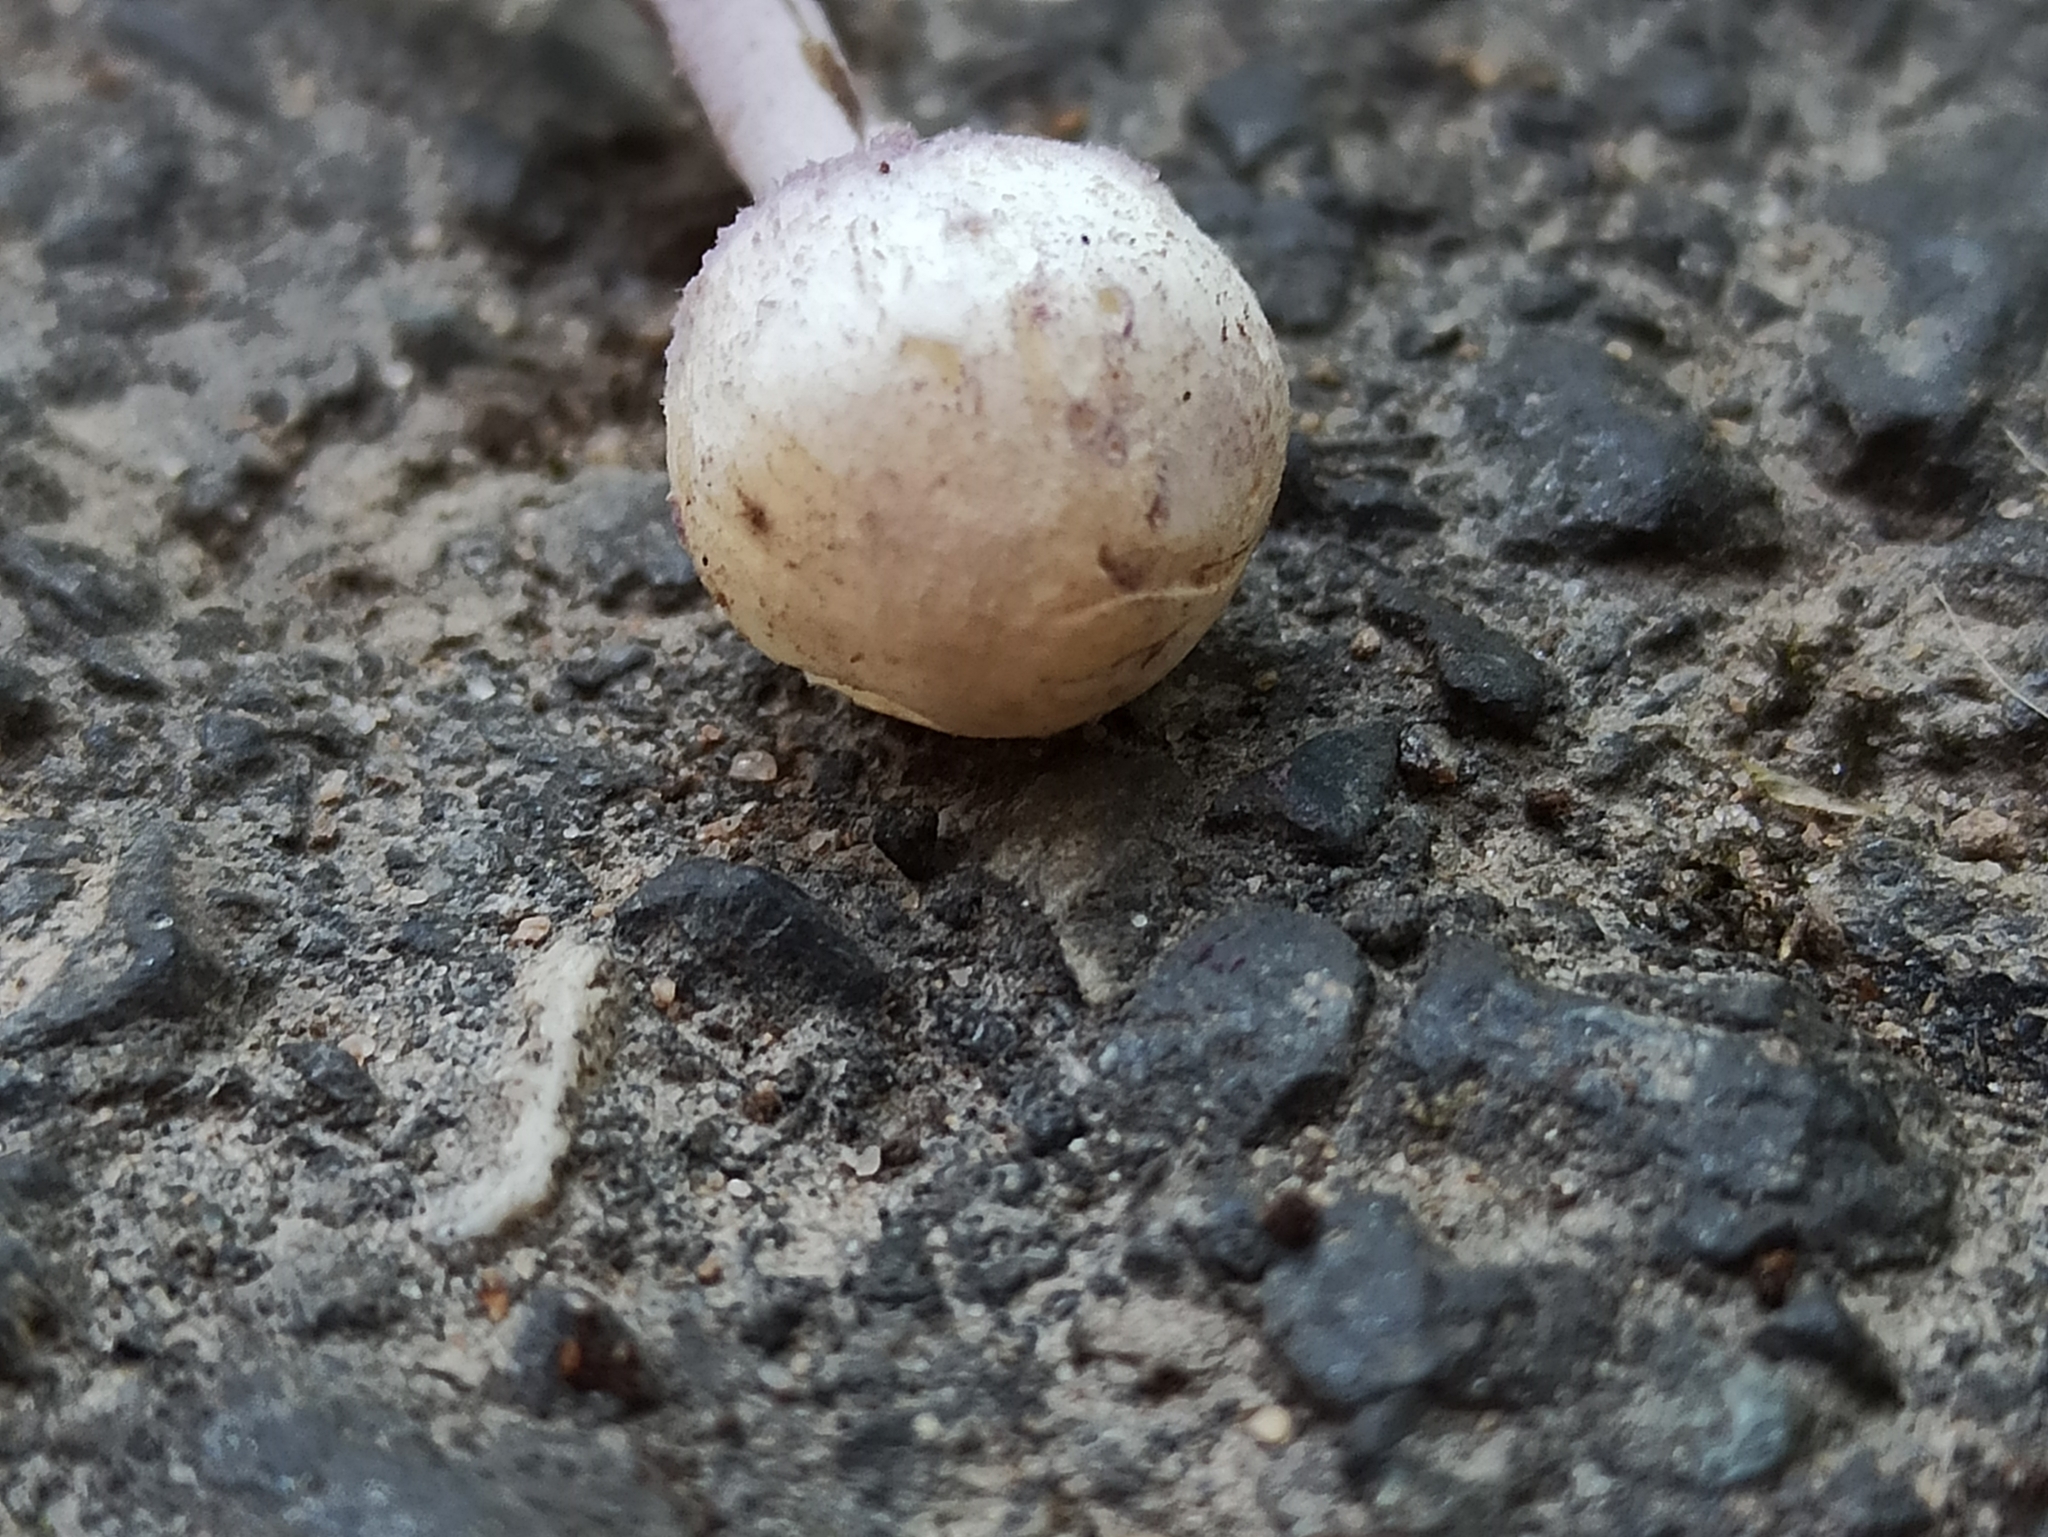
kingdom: Fungi
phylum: Basidiomycota
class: Agaricomycetes
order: Agaricales
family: Agaricaceae
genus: Cystolepiota
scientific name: Cystolepiota bucknallii
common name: Lilac dapperling
